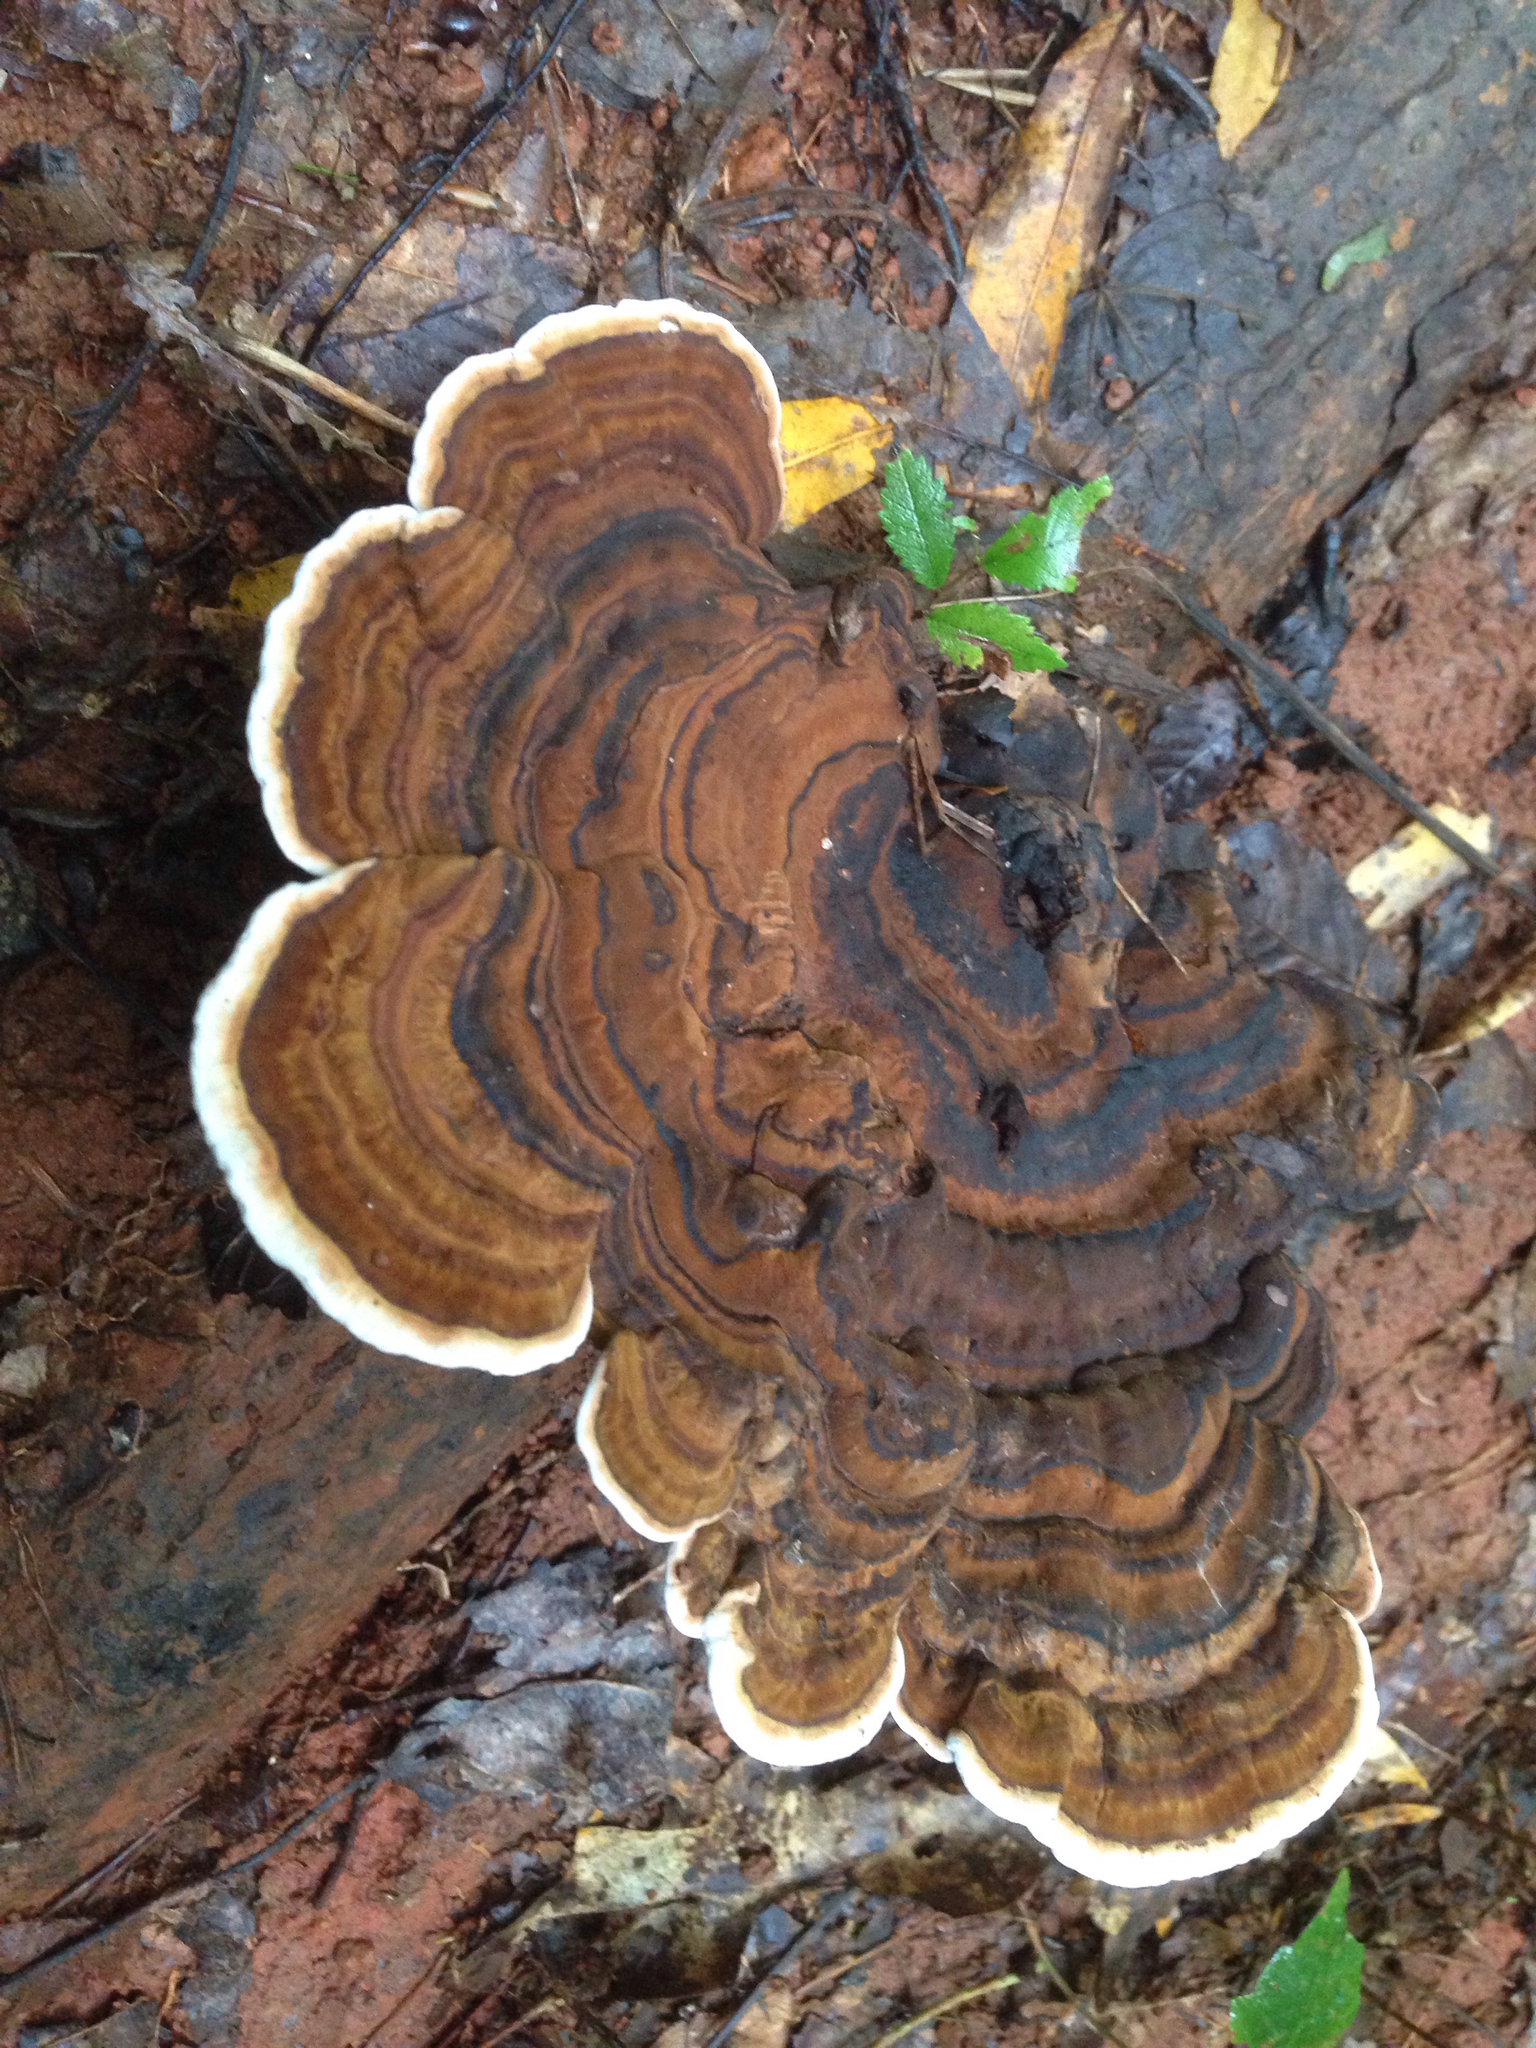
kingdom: Fungi
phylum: Basidiomycota
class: Agaricomycetes
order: Polyporales
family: Polyporaceae
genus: Ganoderma
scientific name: Ganoderma lobatum
